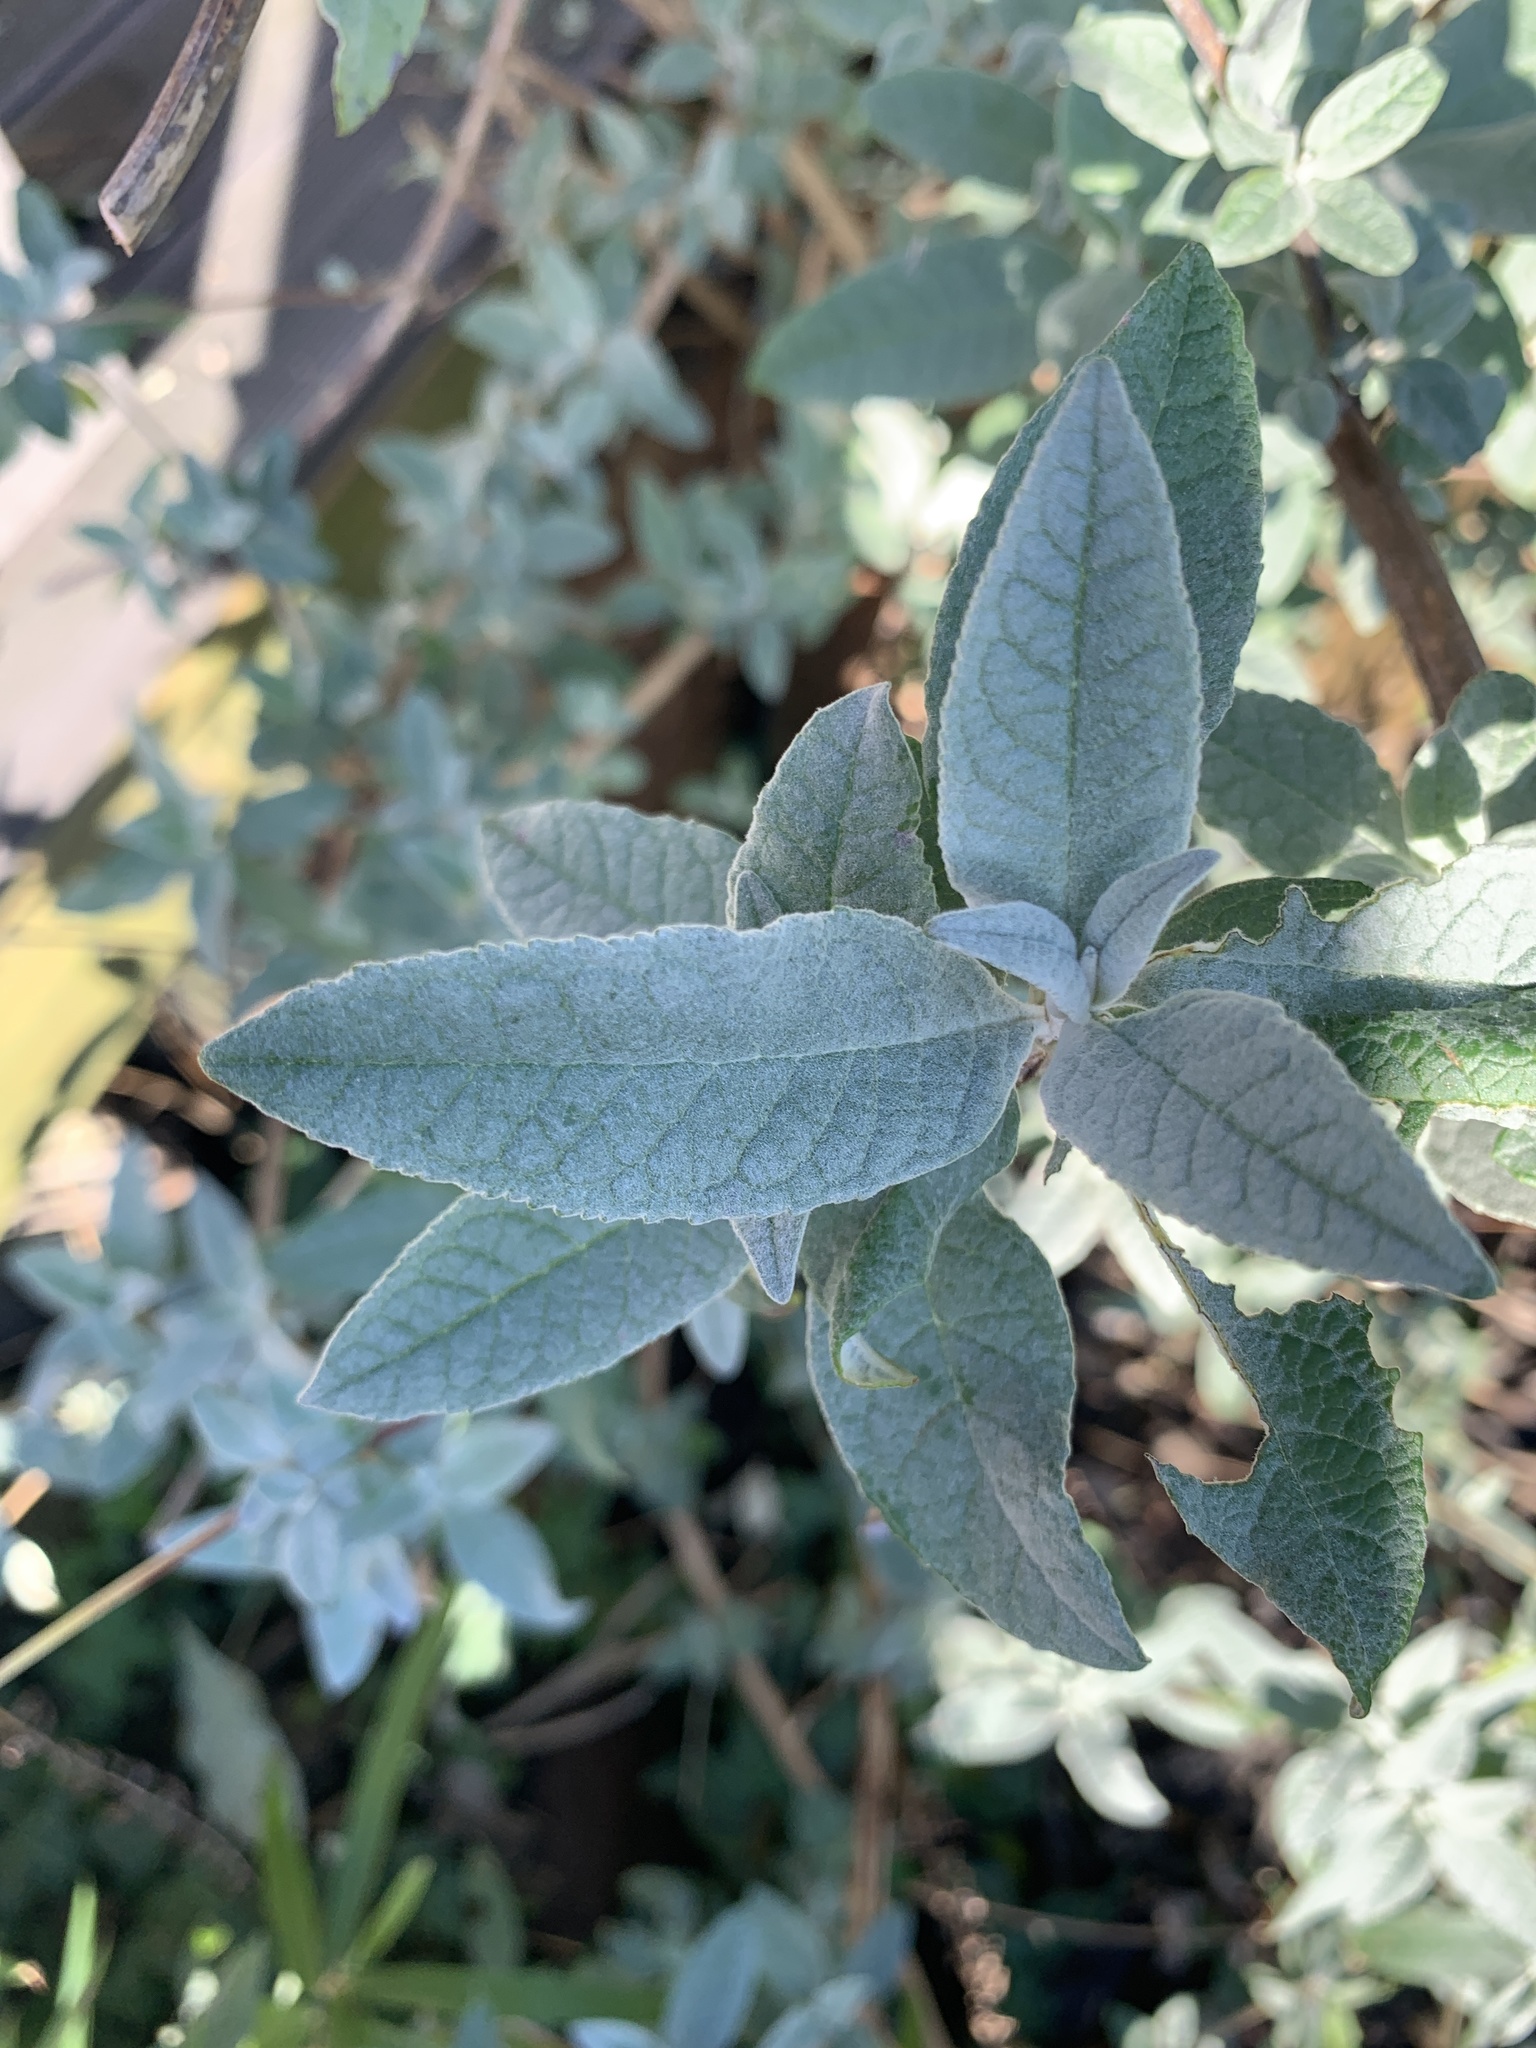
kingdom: Plantae
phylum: Tracheophyta
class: Magnoliopsida
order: Lamiales
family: Scrophulariaceae
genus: Buddleja
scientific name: Buddleja davidii
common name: Butterfly-bush
